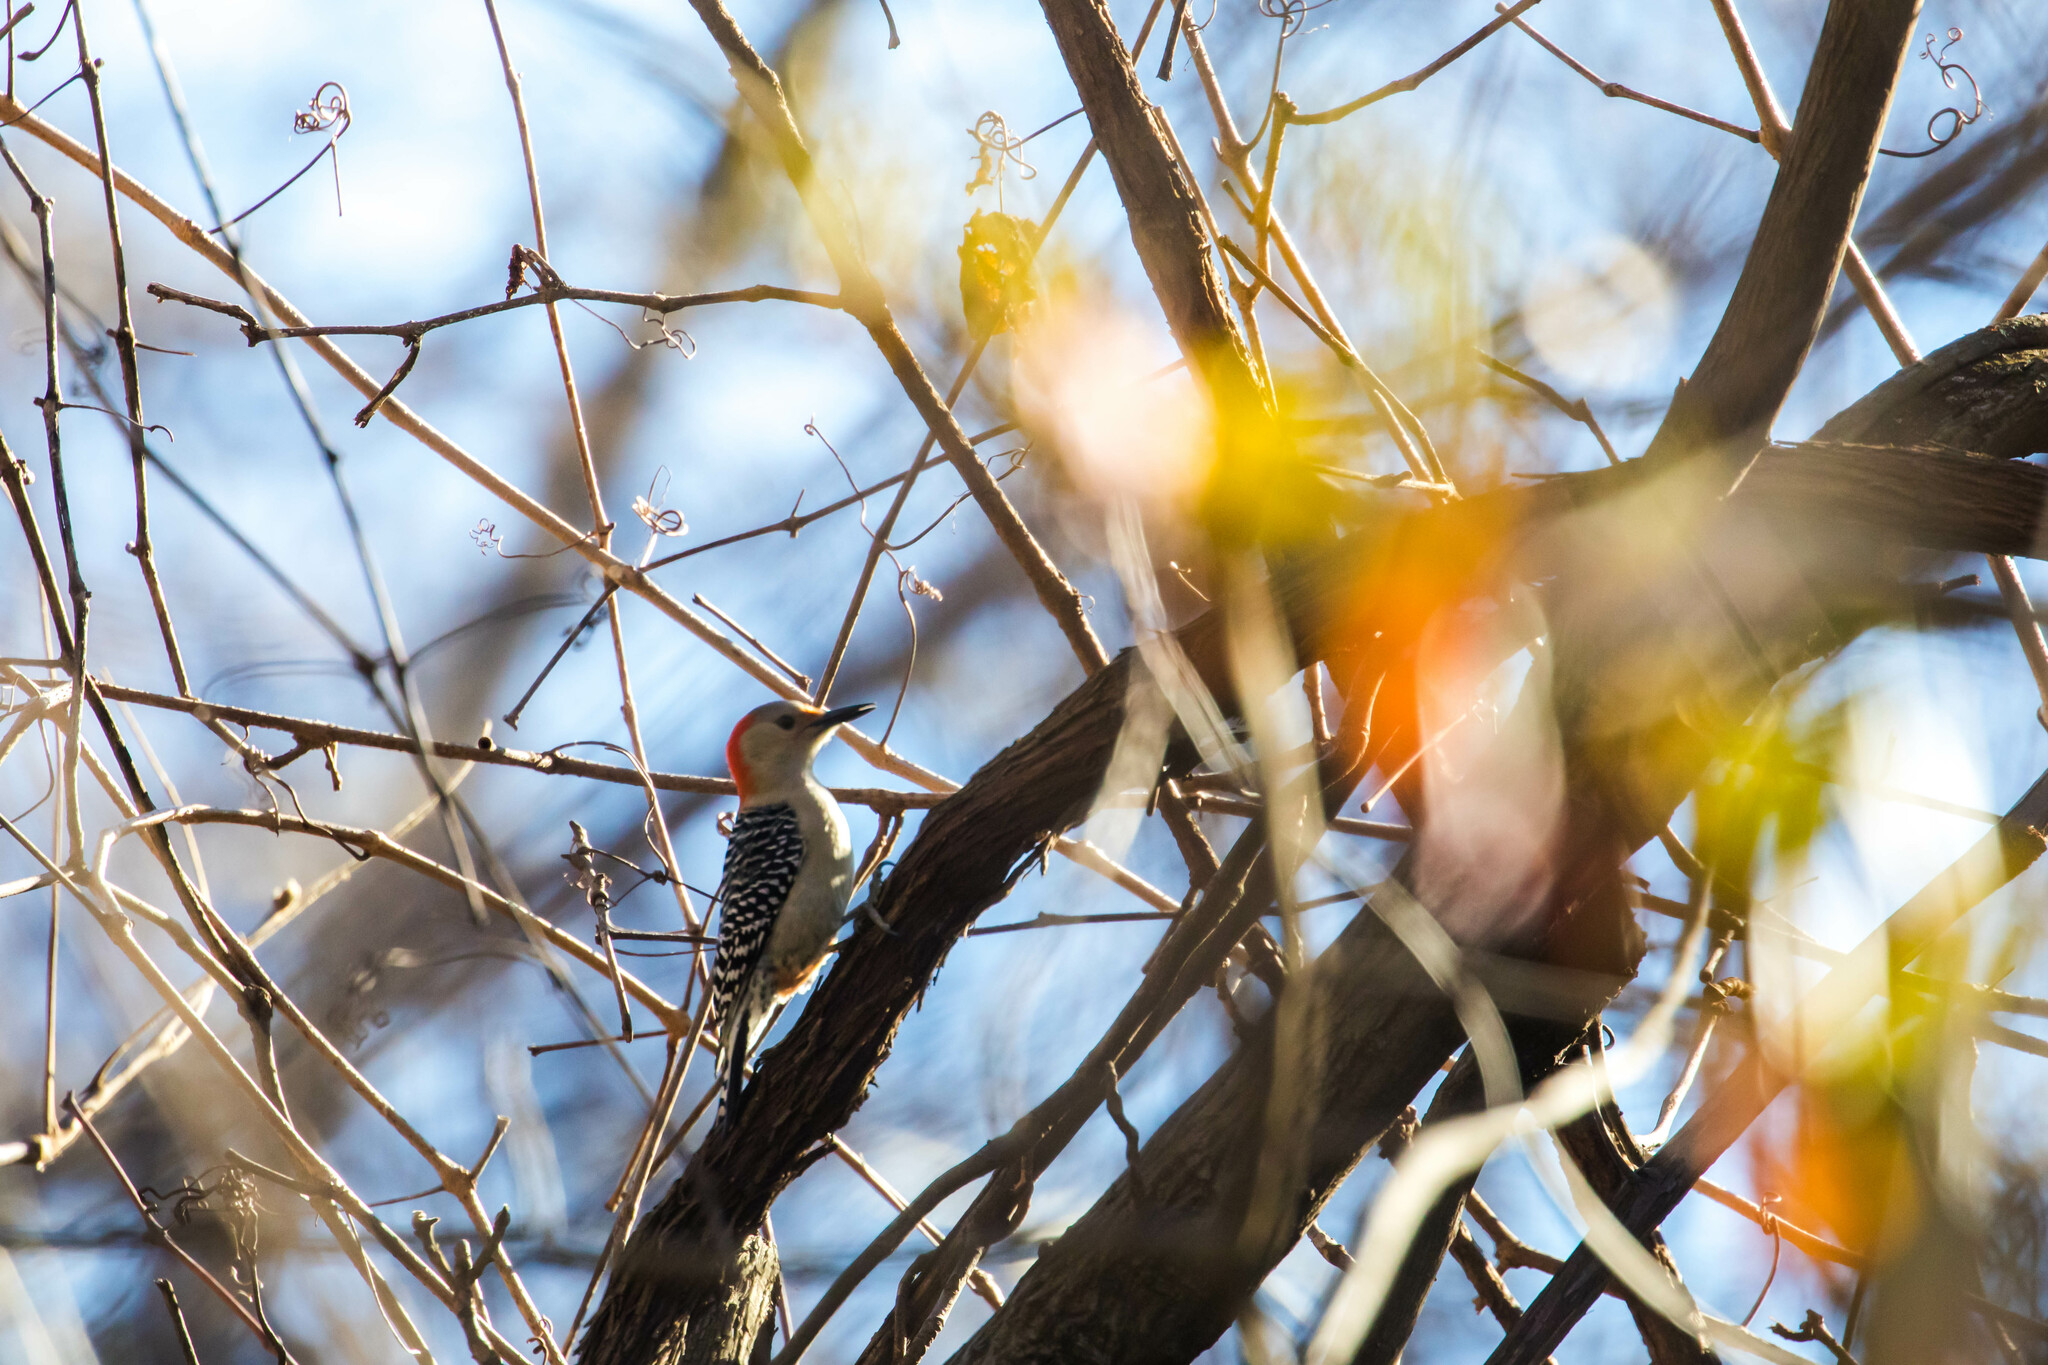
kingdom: Animalia
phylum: Chordata
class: Aves
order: Piciformes
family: Picidae
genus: Melanerpes
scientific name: Melanerpes carolinus
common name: Red-bellied woodpecker
